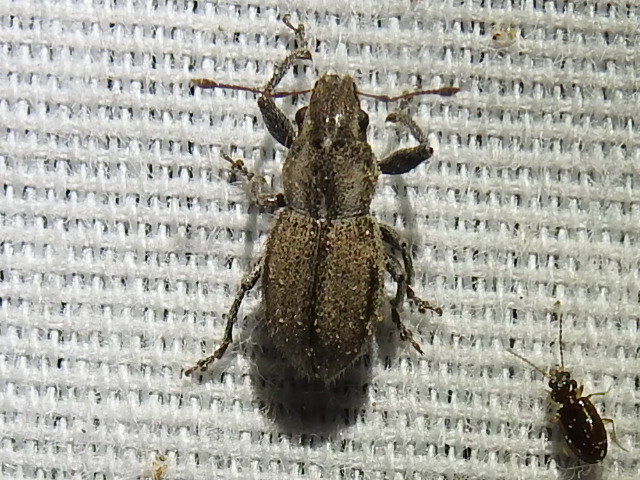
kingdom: Animalia
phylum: Arthropoda
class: Insecta
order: Coleoptera
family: Curculionidae
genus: Naupactus
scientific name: Naupactus peregrinus
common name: Whitefringed beetle
